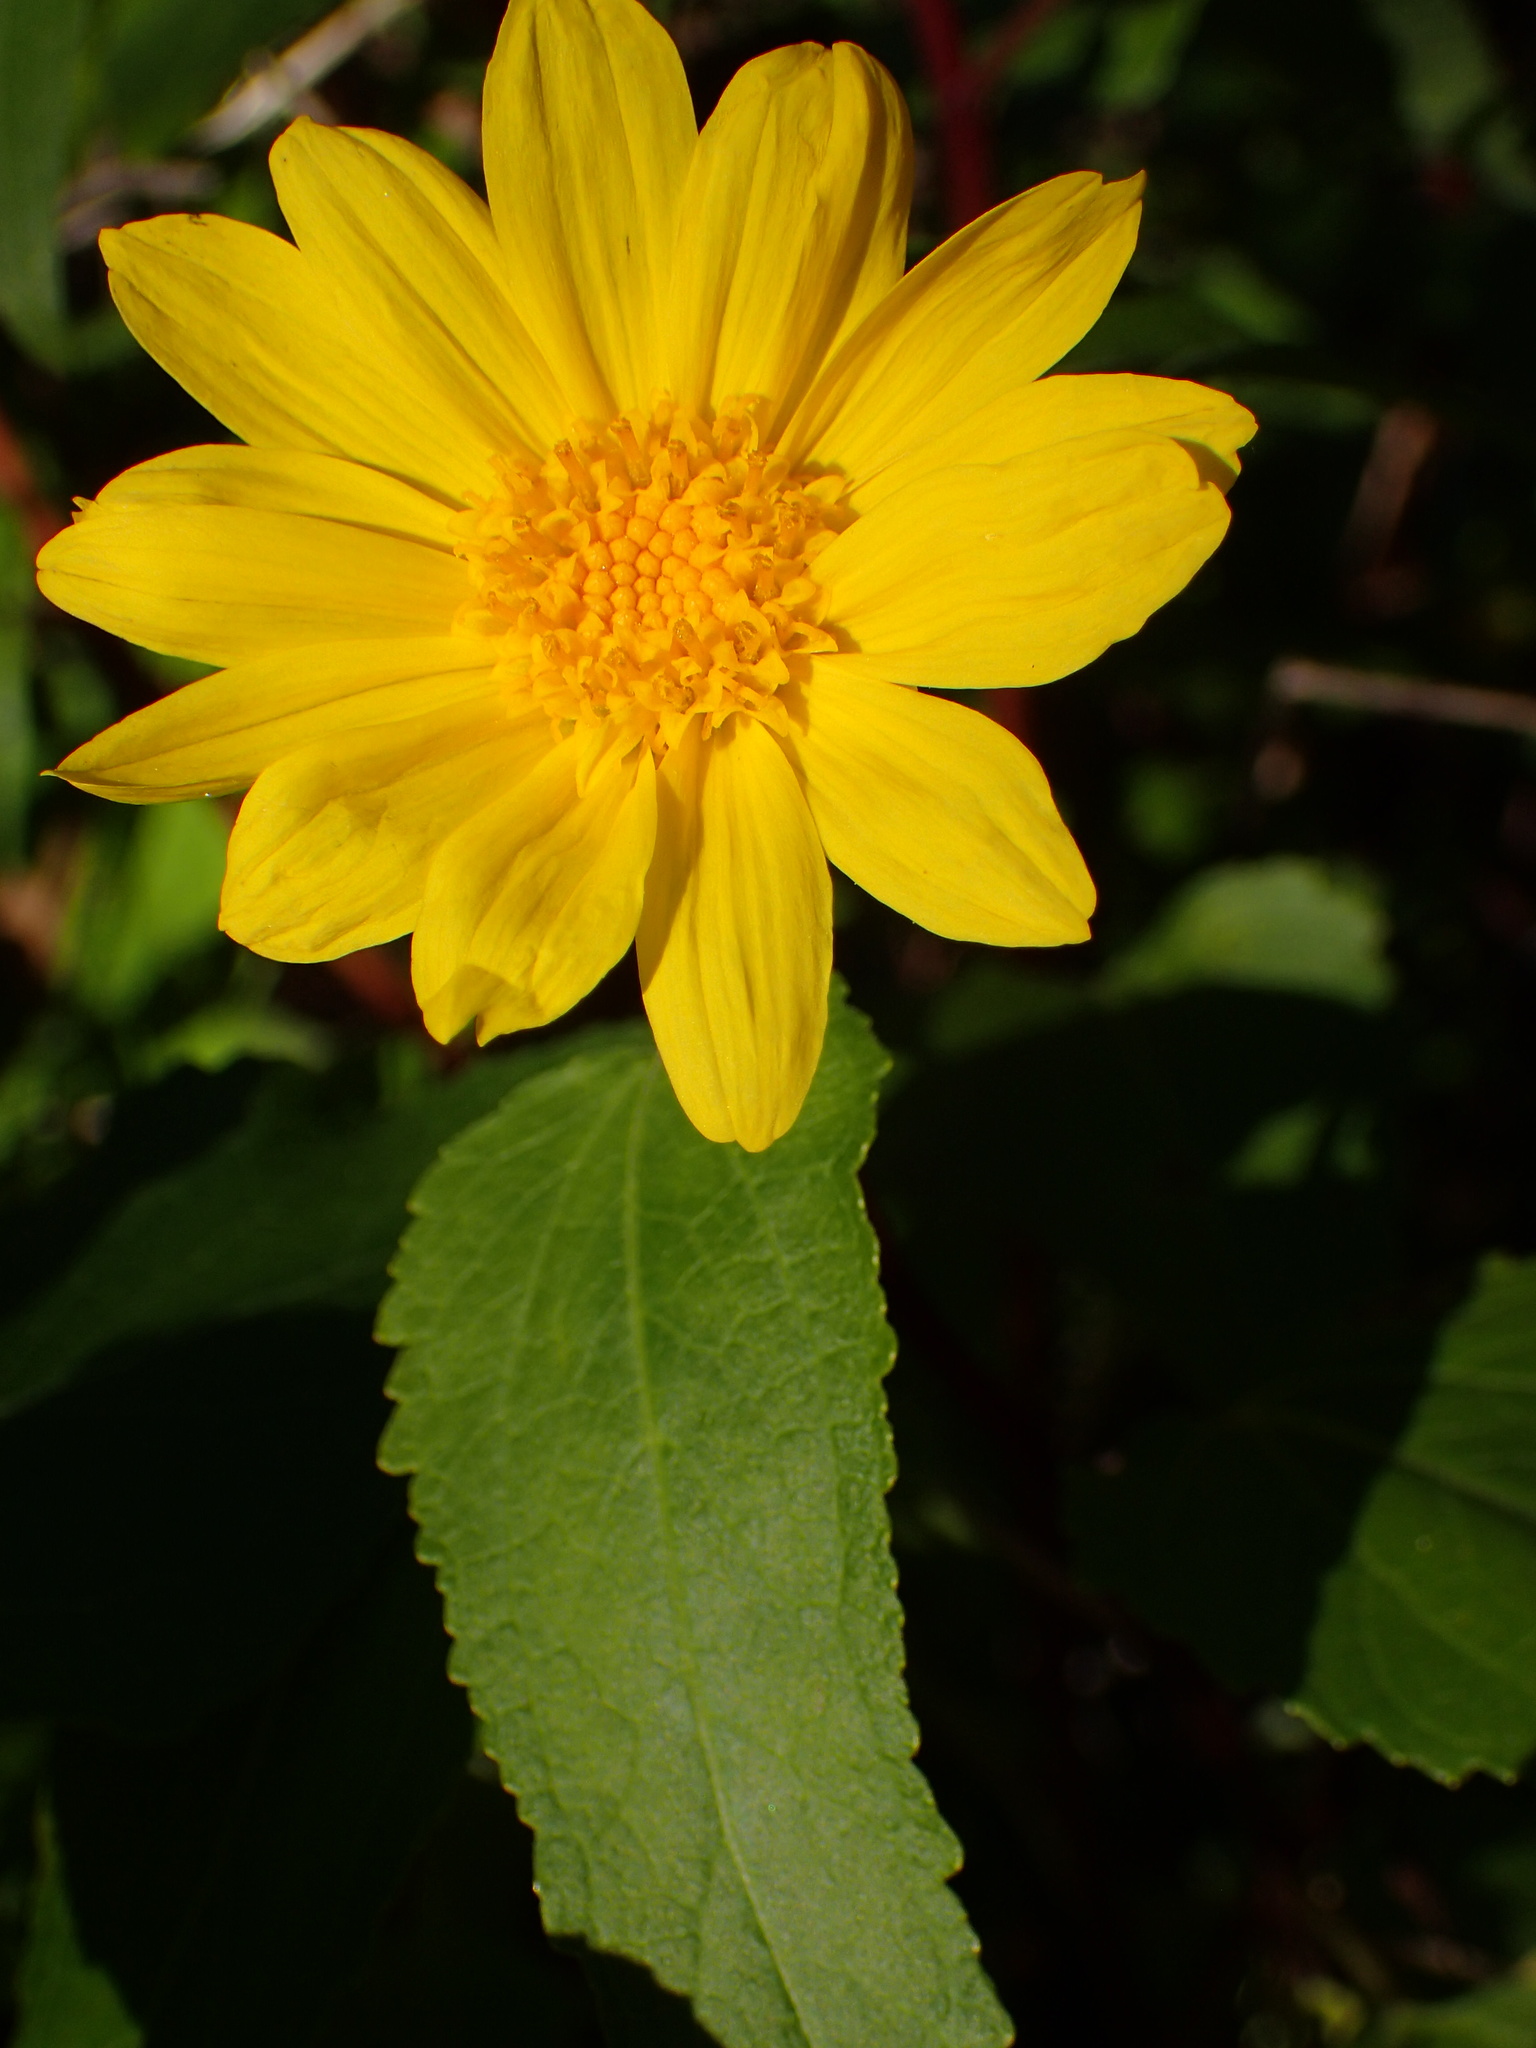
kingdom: Plantae
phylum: Tracheophyta
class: Magnoliopsida
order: Asterales
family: Asteraceae
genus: Venegasia
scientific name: Venegasia carpesioides
